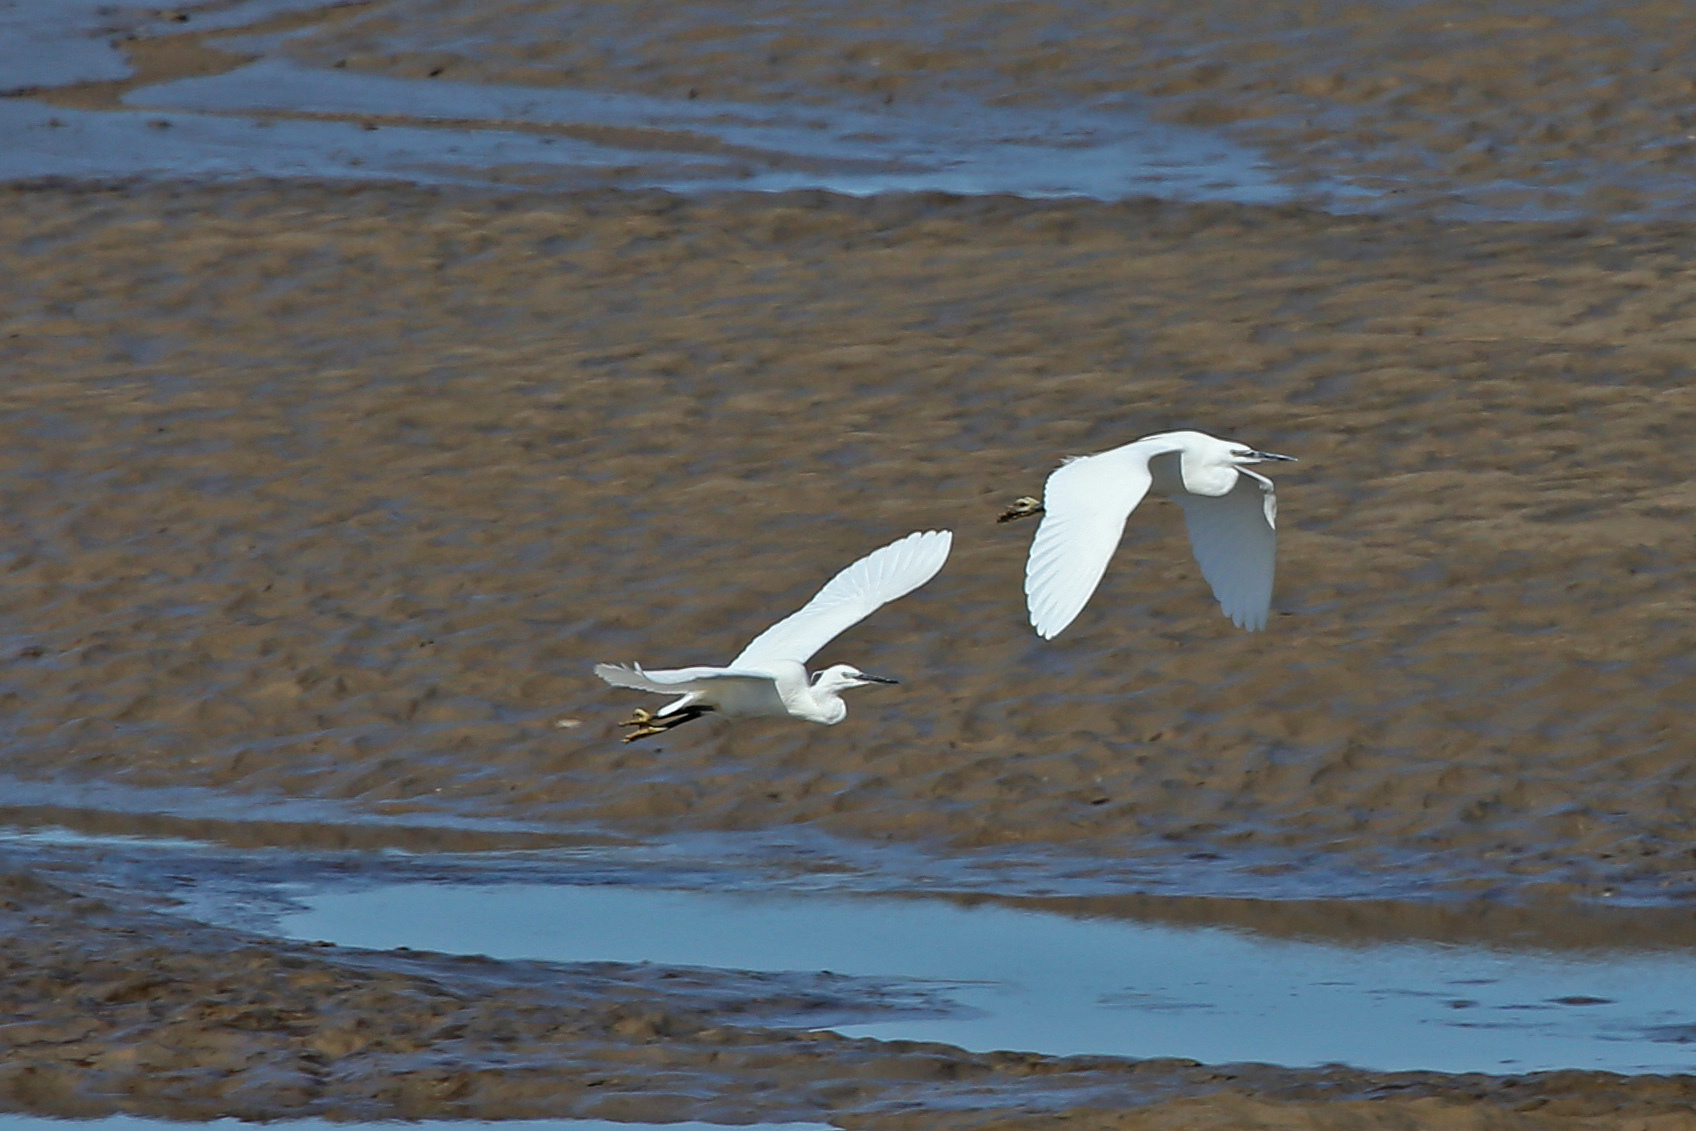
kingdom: Animalia
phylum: Chordata
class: Aves
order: Pelecaniformes
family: Ardeidae
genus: Egretta
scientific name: Egretta garzetta
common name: Little egret
